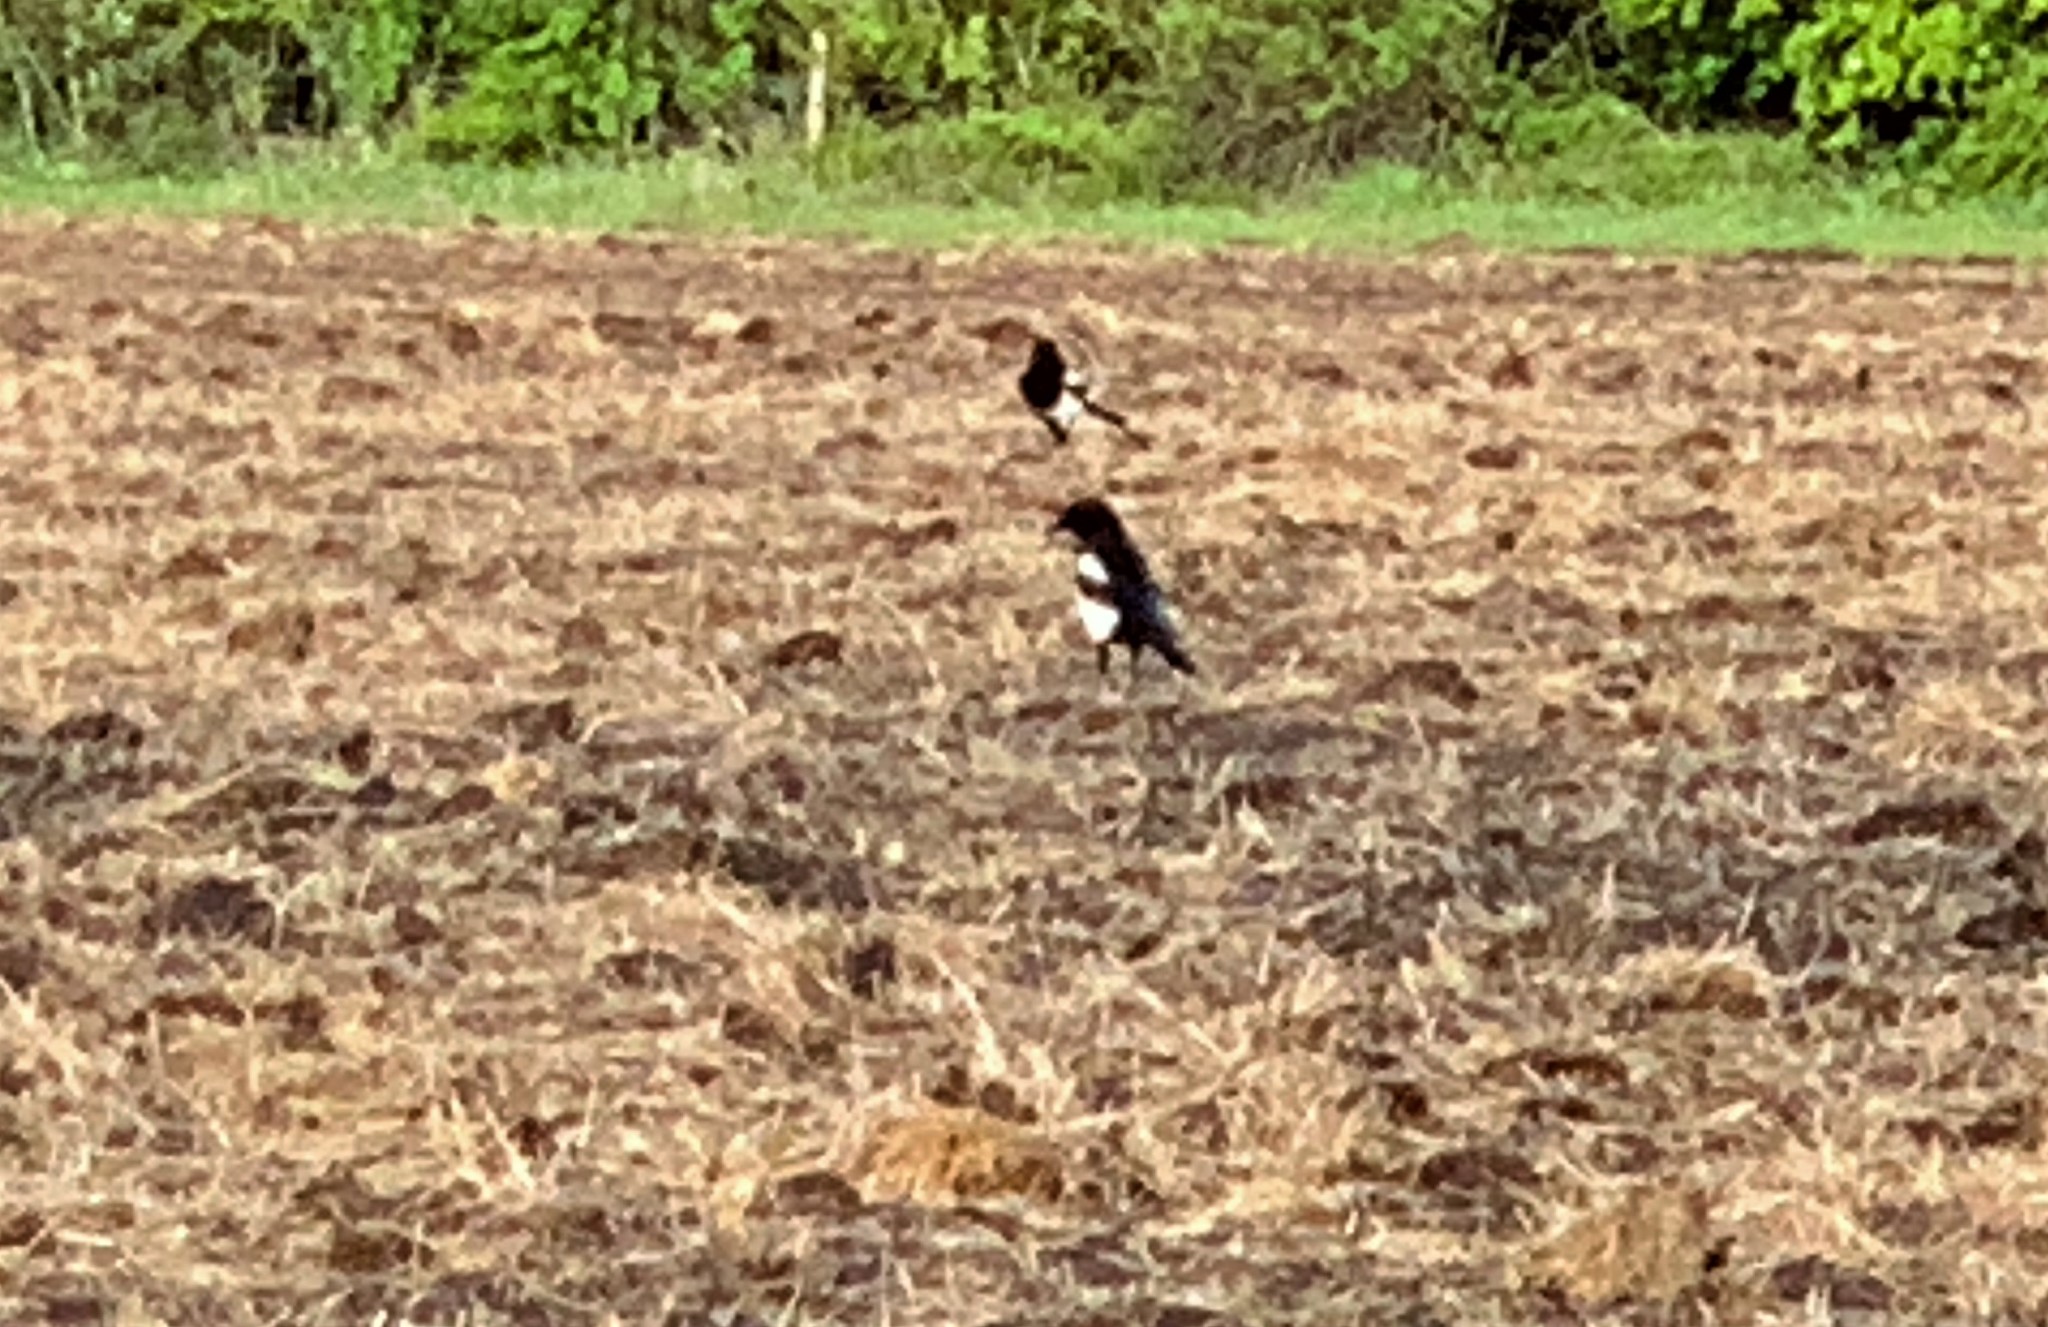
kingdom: Animalia
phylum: Chordata
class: Aves
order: Passeriformes
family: Corvidae
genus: Pica
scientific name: Pica pica
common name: Eurasian magpie
